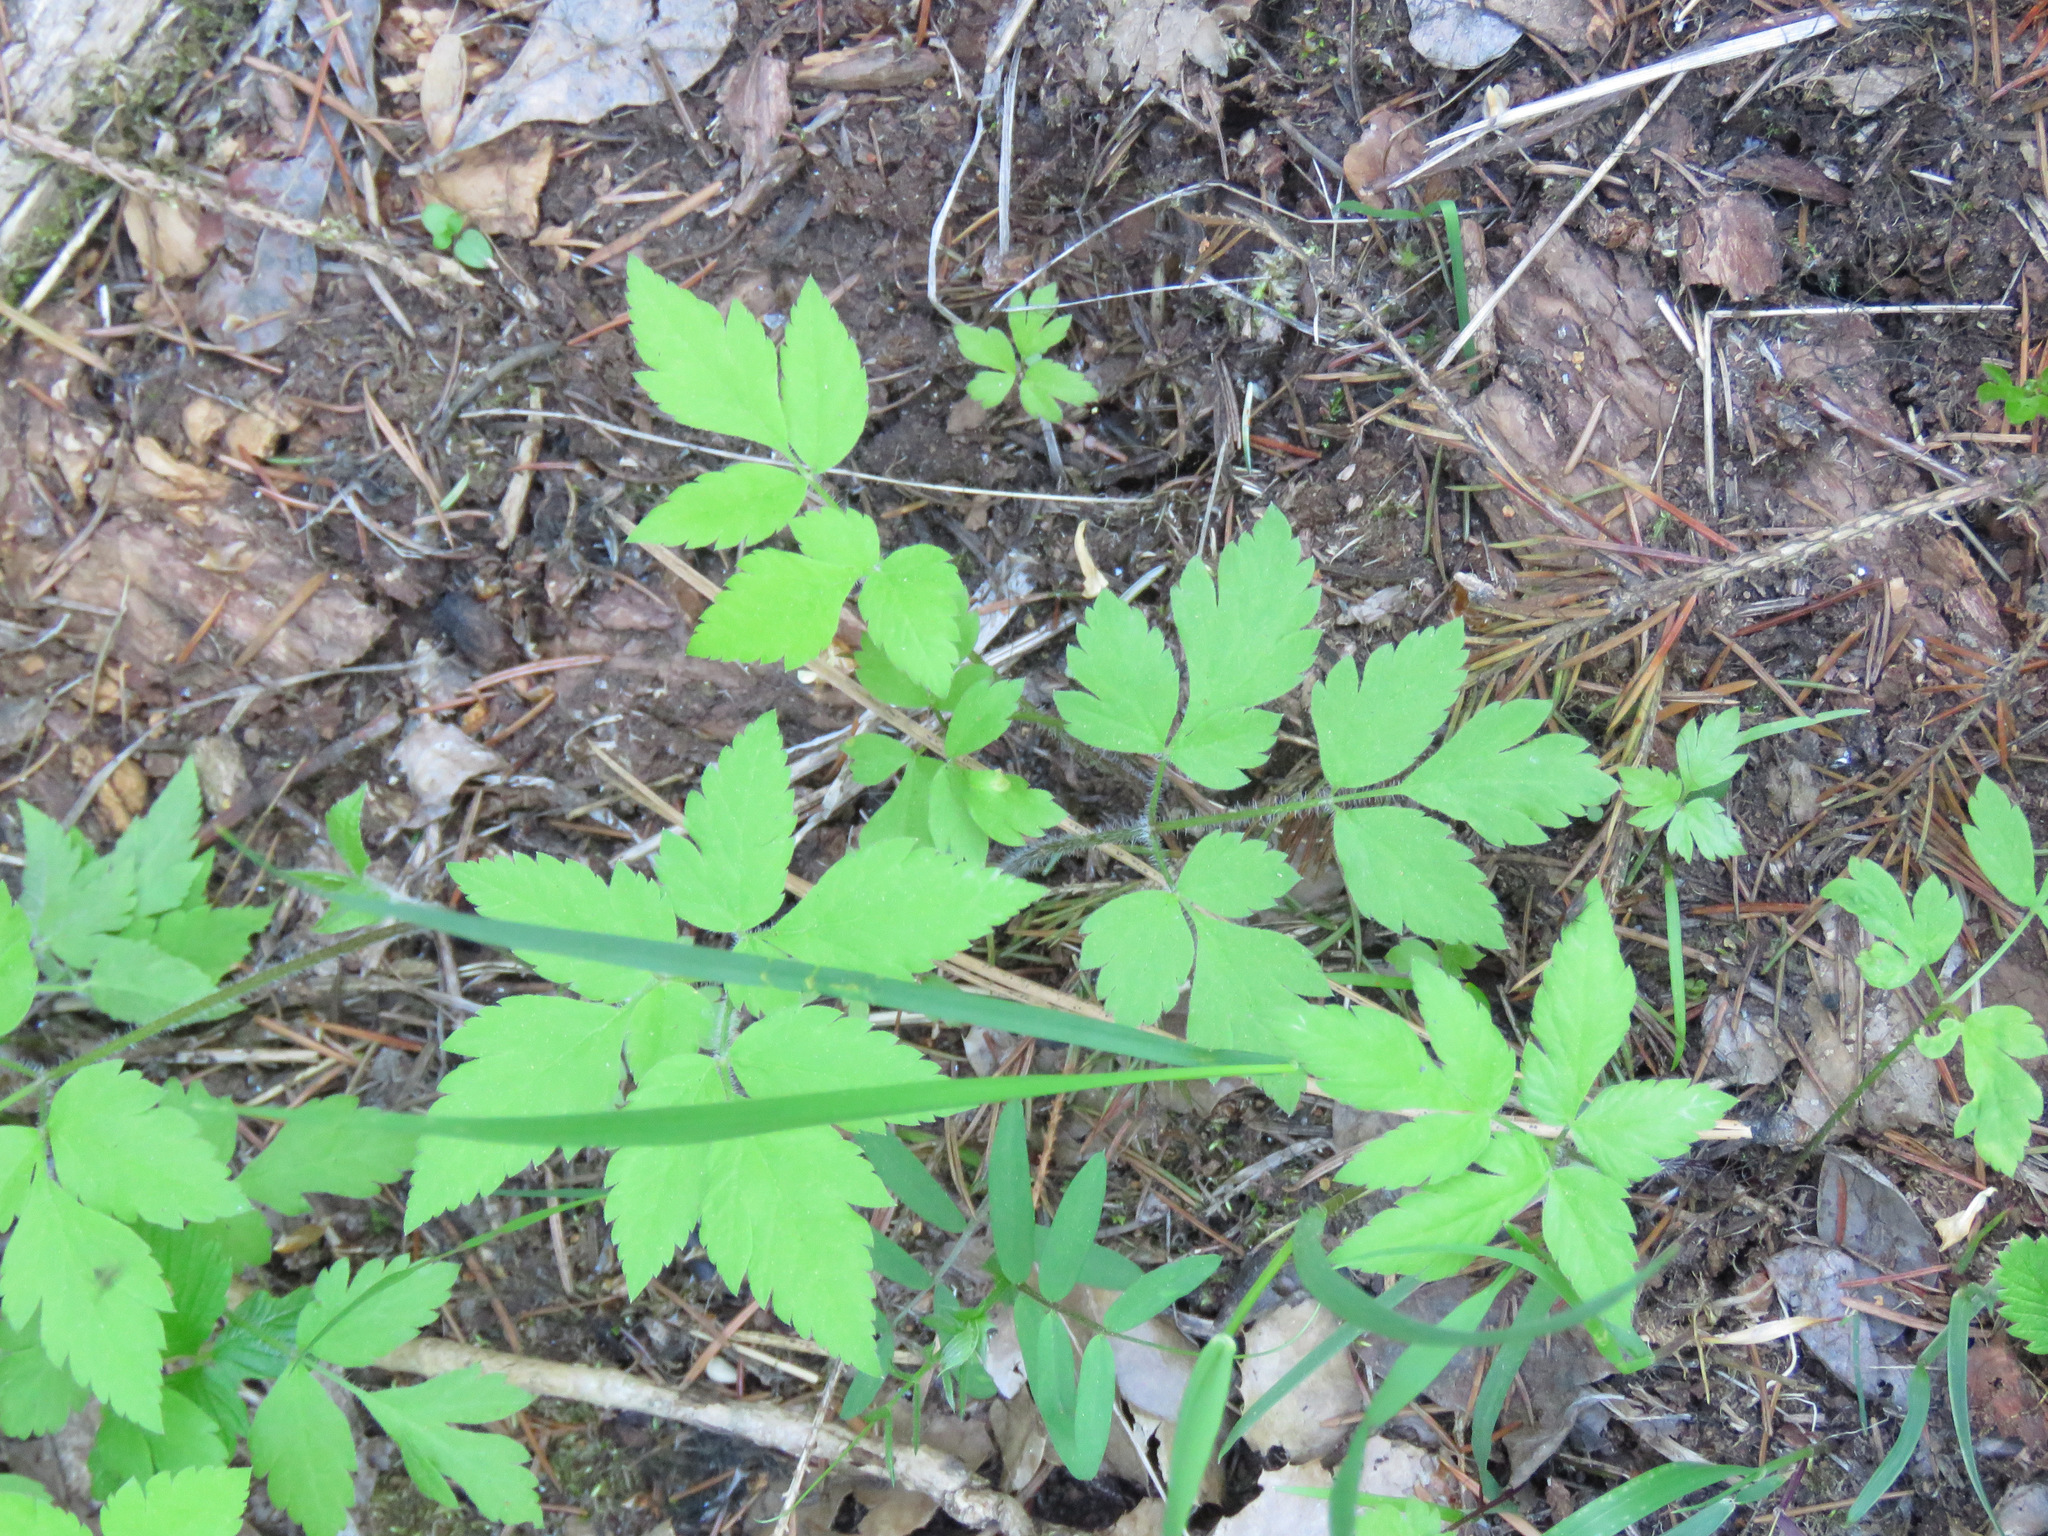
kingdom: Plantae
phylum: Tracheophyta
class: Magnoliopsida
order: Apiales
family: Apiaceae
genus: Osmorhiza
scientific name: Osmorhiza berteroi
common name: Mountain sweet cicely
